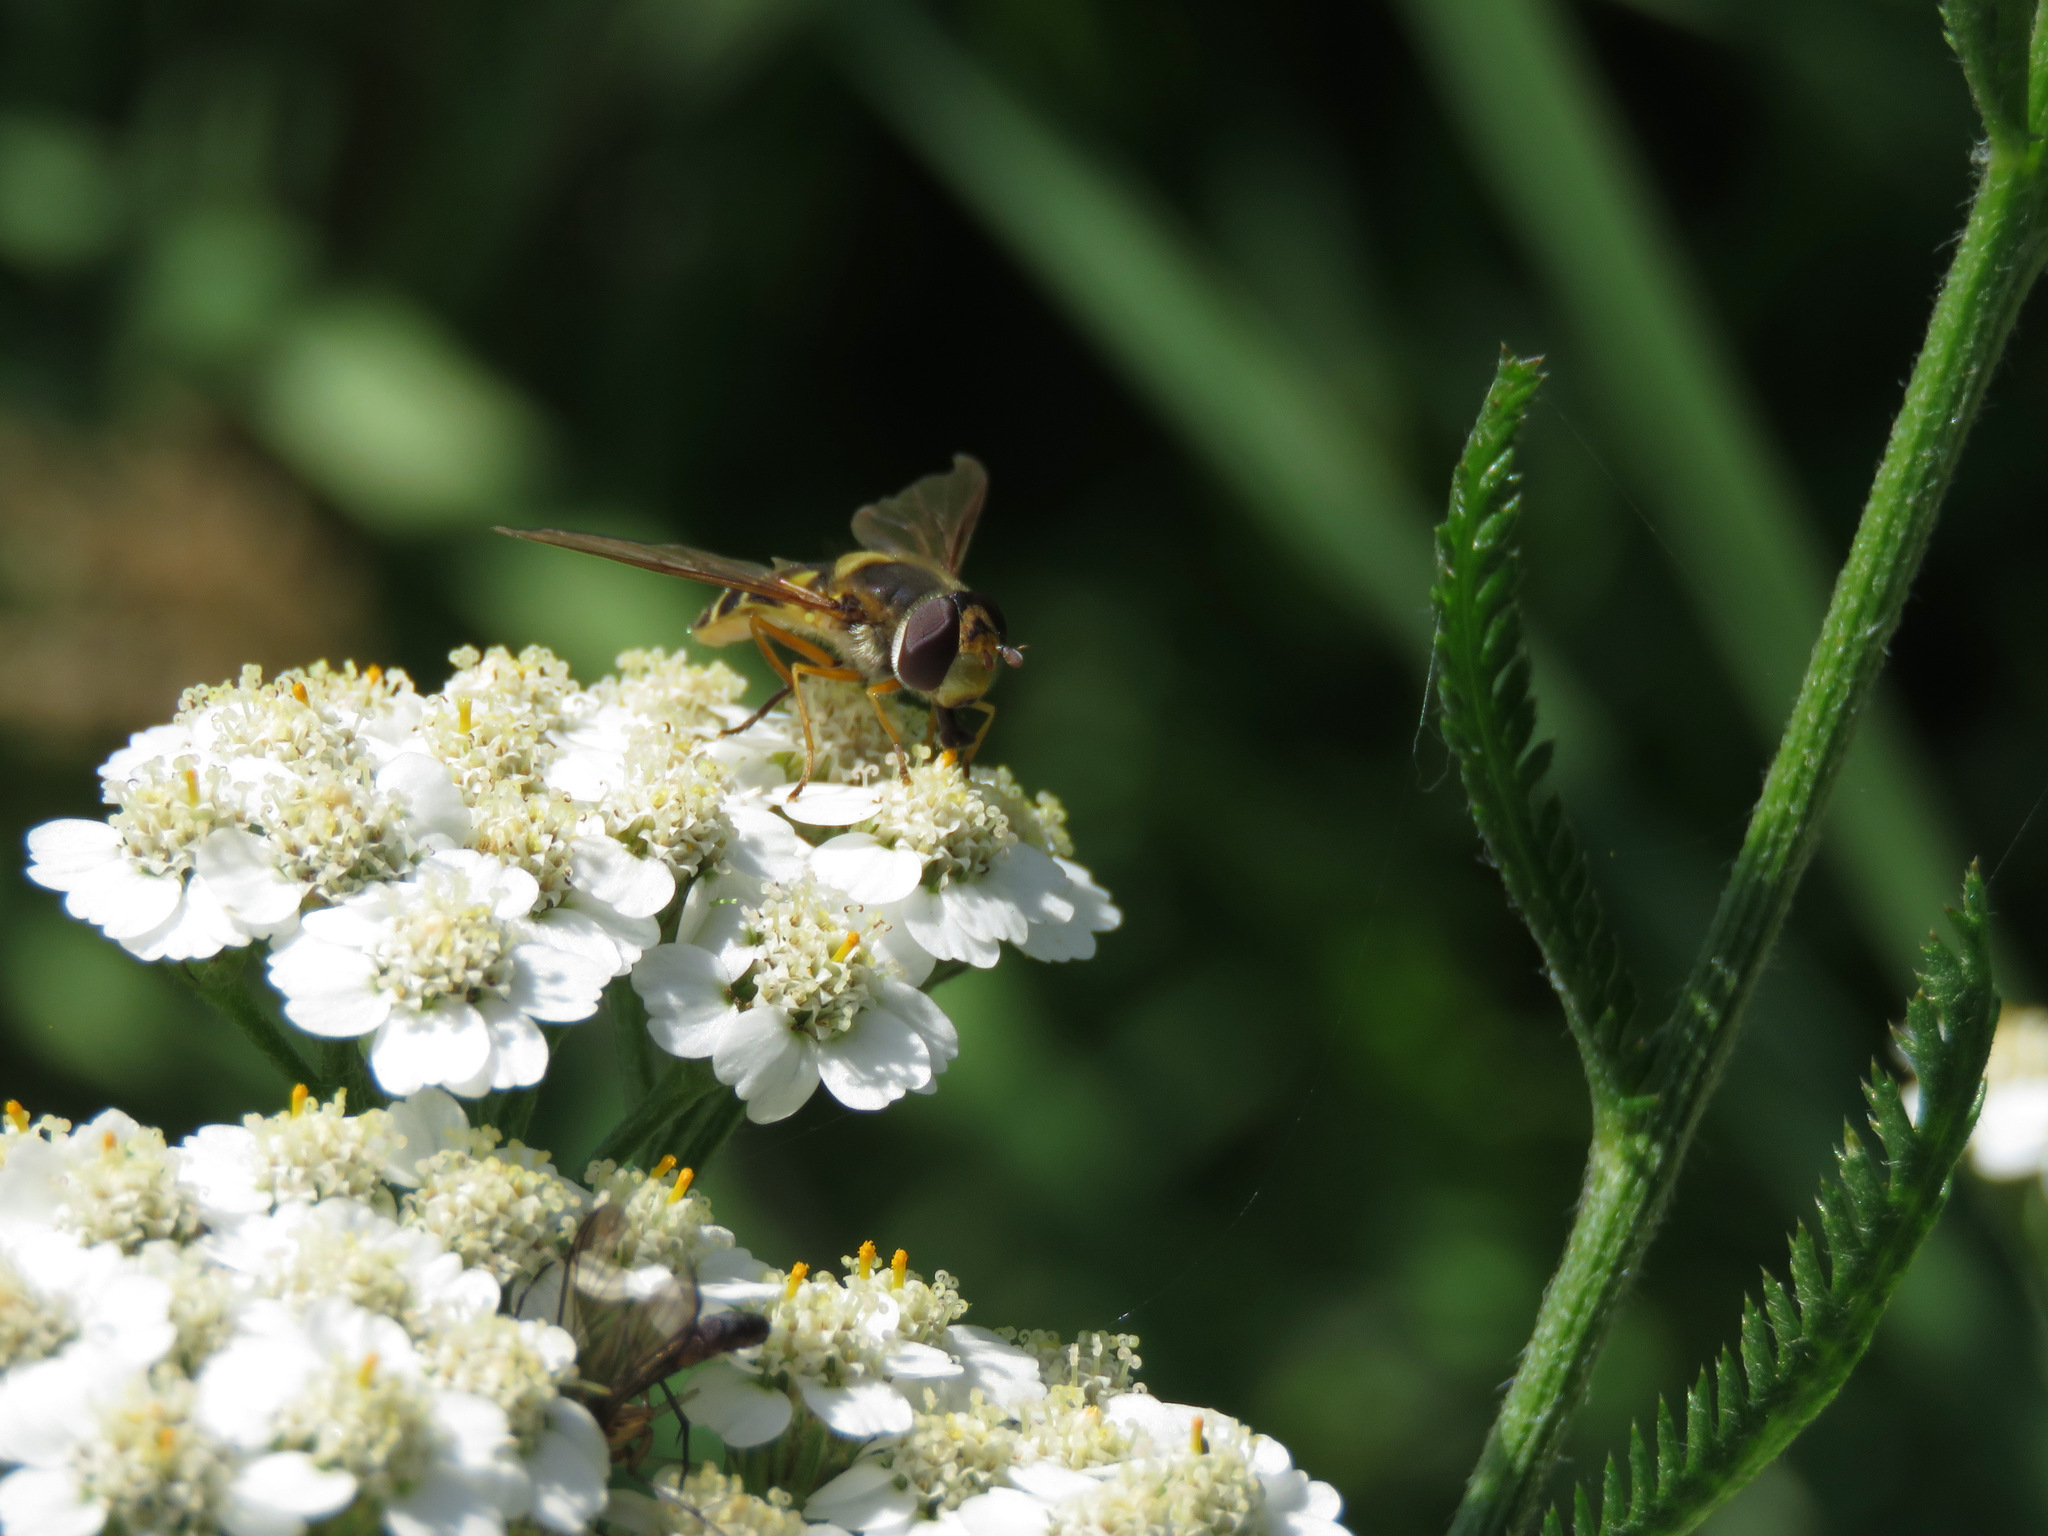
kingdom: Animalia
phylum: Arthropoda
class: Insecta
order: Diptera
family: Syrphidae
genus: Syrphus
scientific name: Syrphus ribesii
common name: Common flower fly
